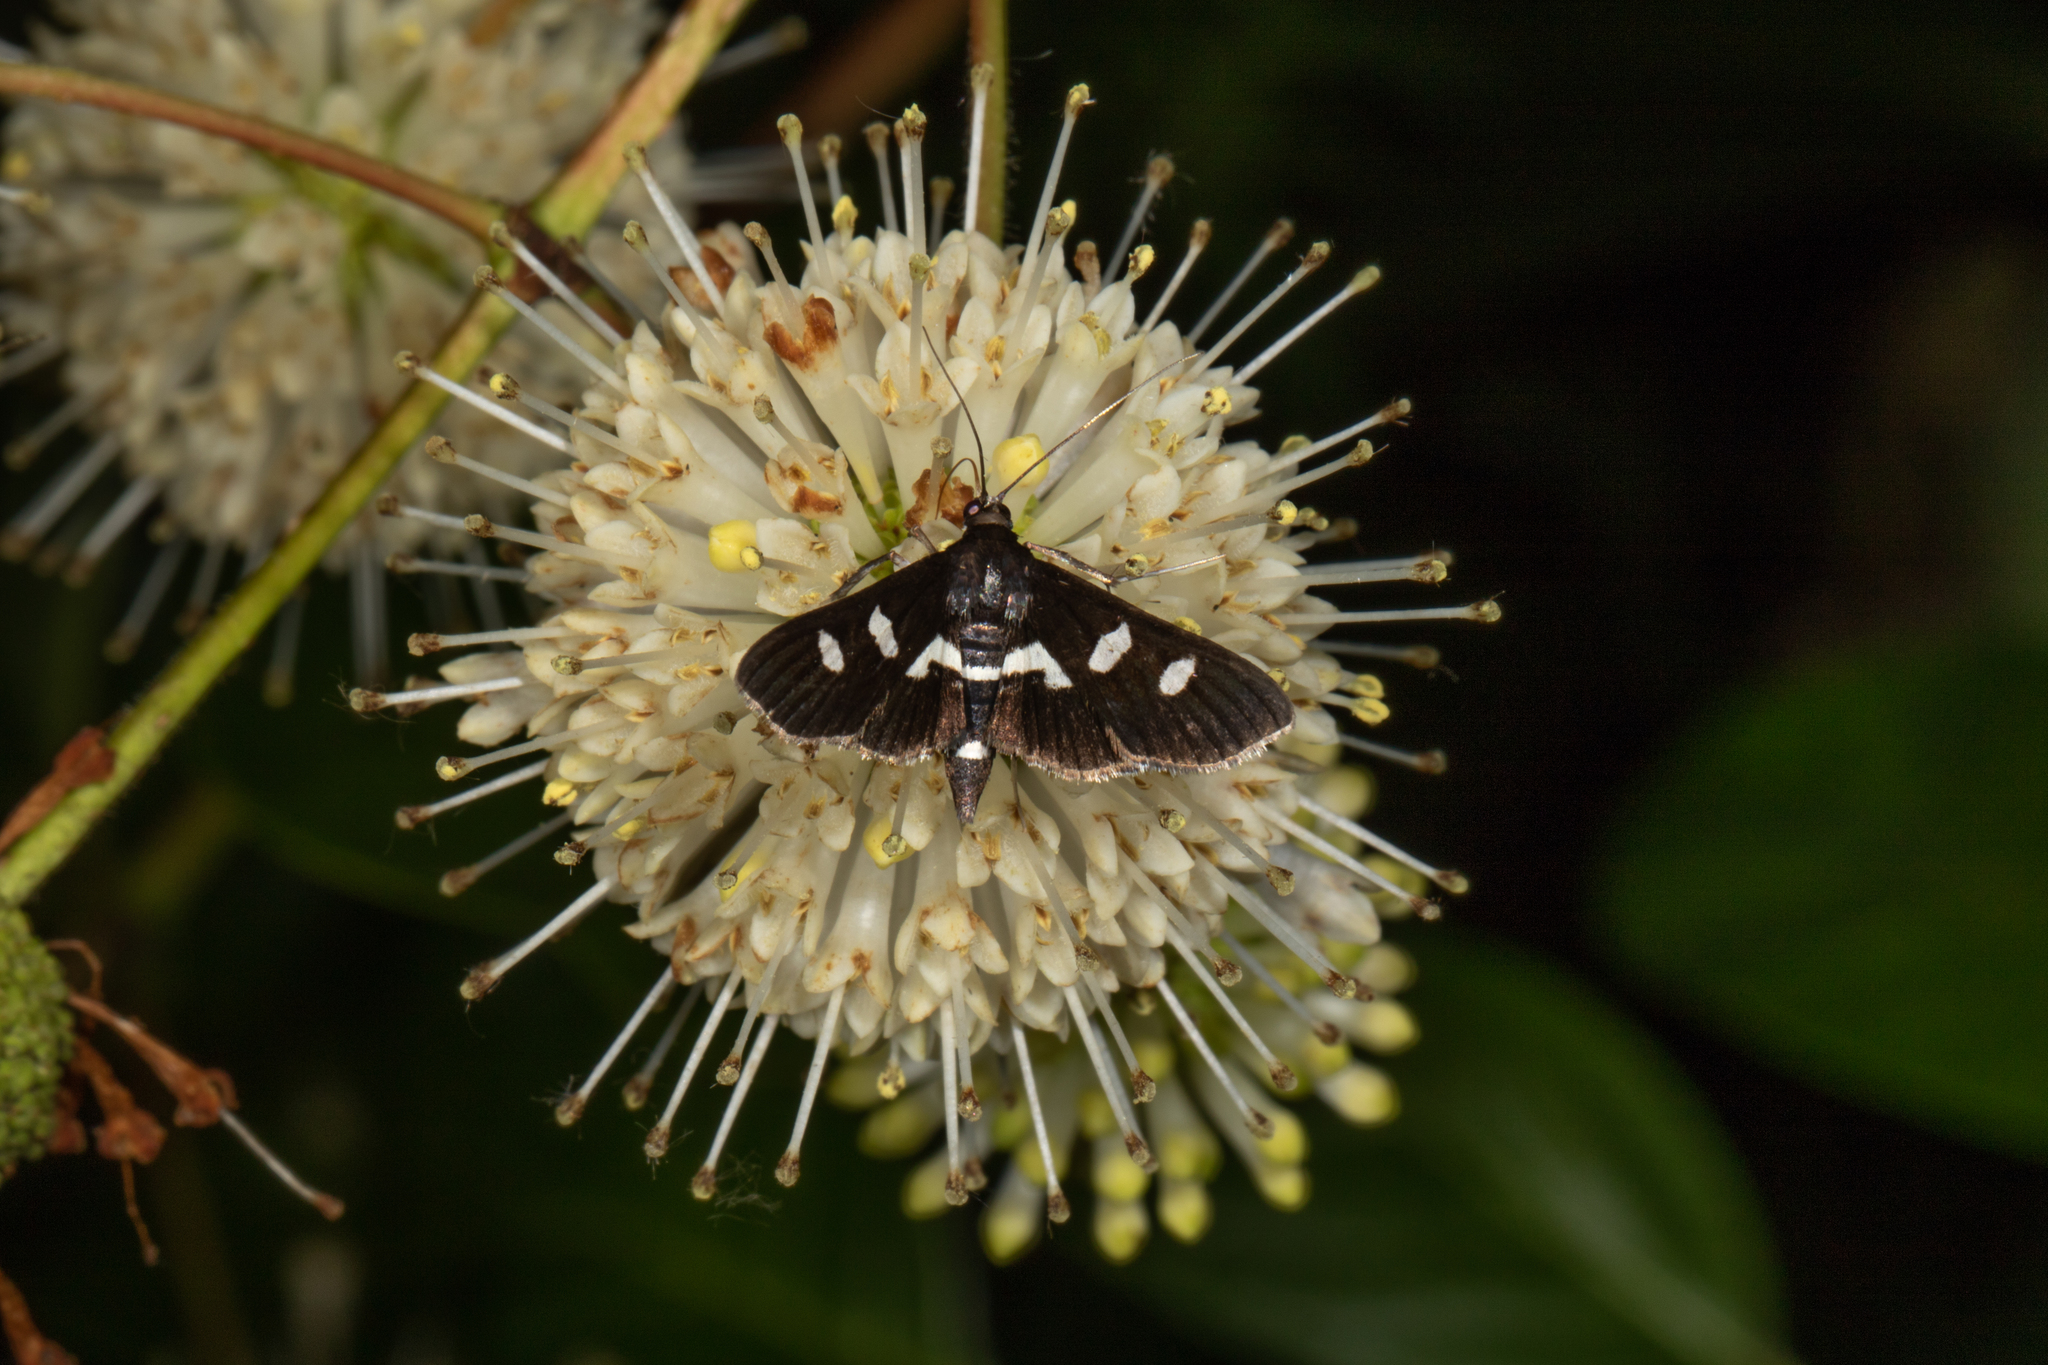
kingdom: Animalia
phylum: Arthropoda
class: Insecta
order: Lepidoptera
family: Crambidae
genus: Desmia
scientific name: Desmia
